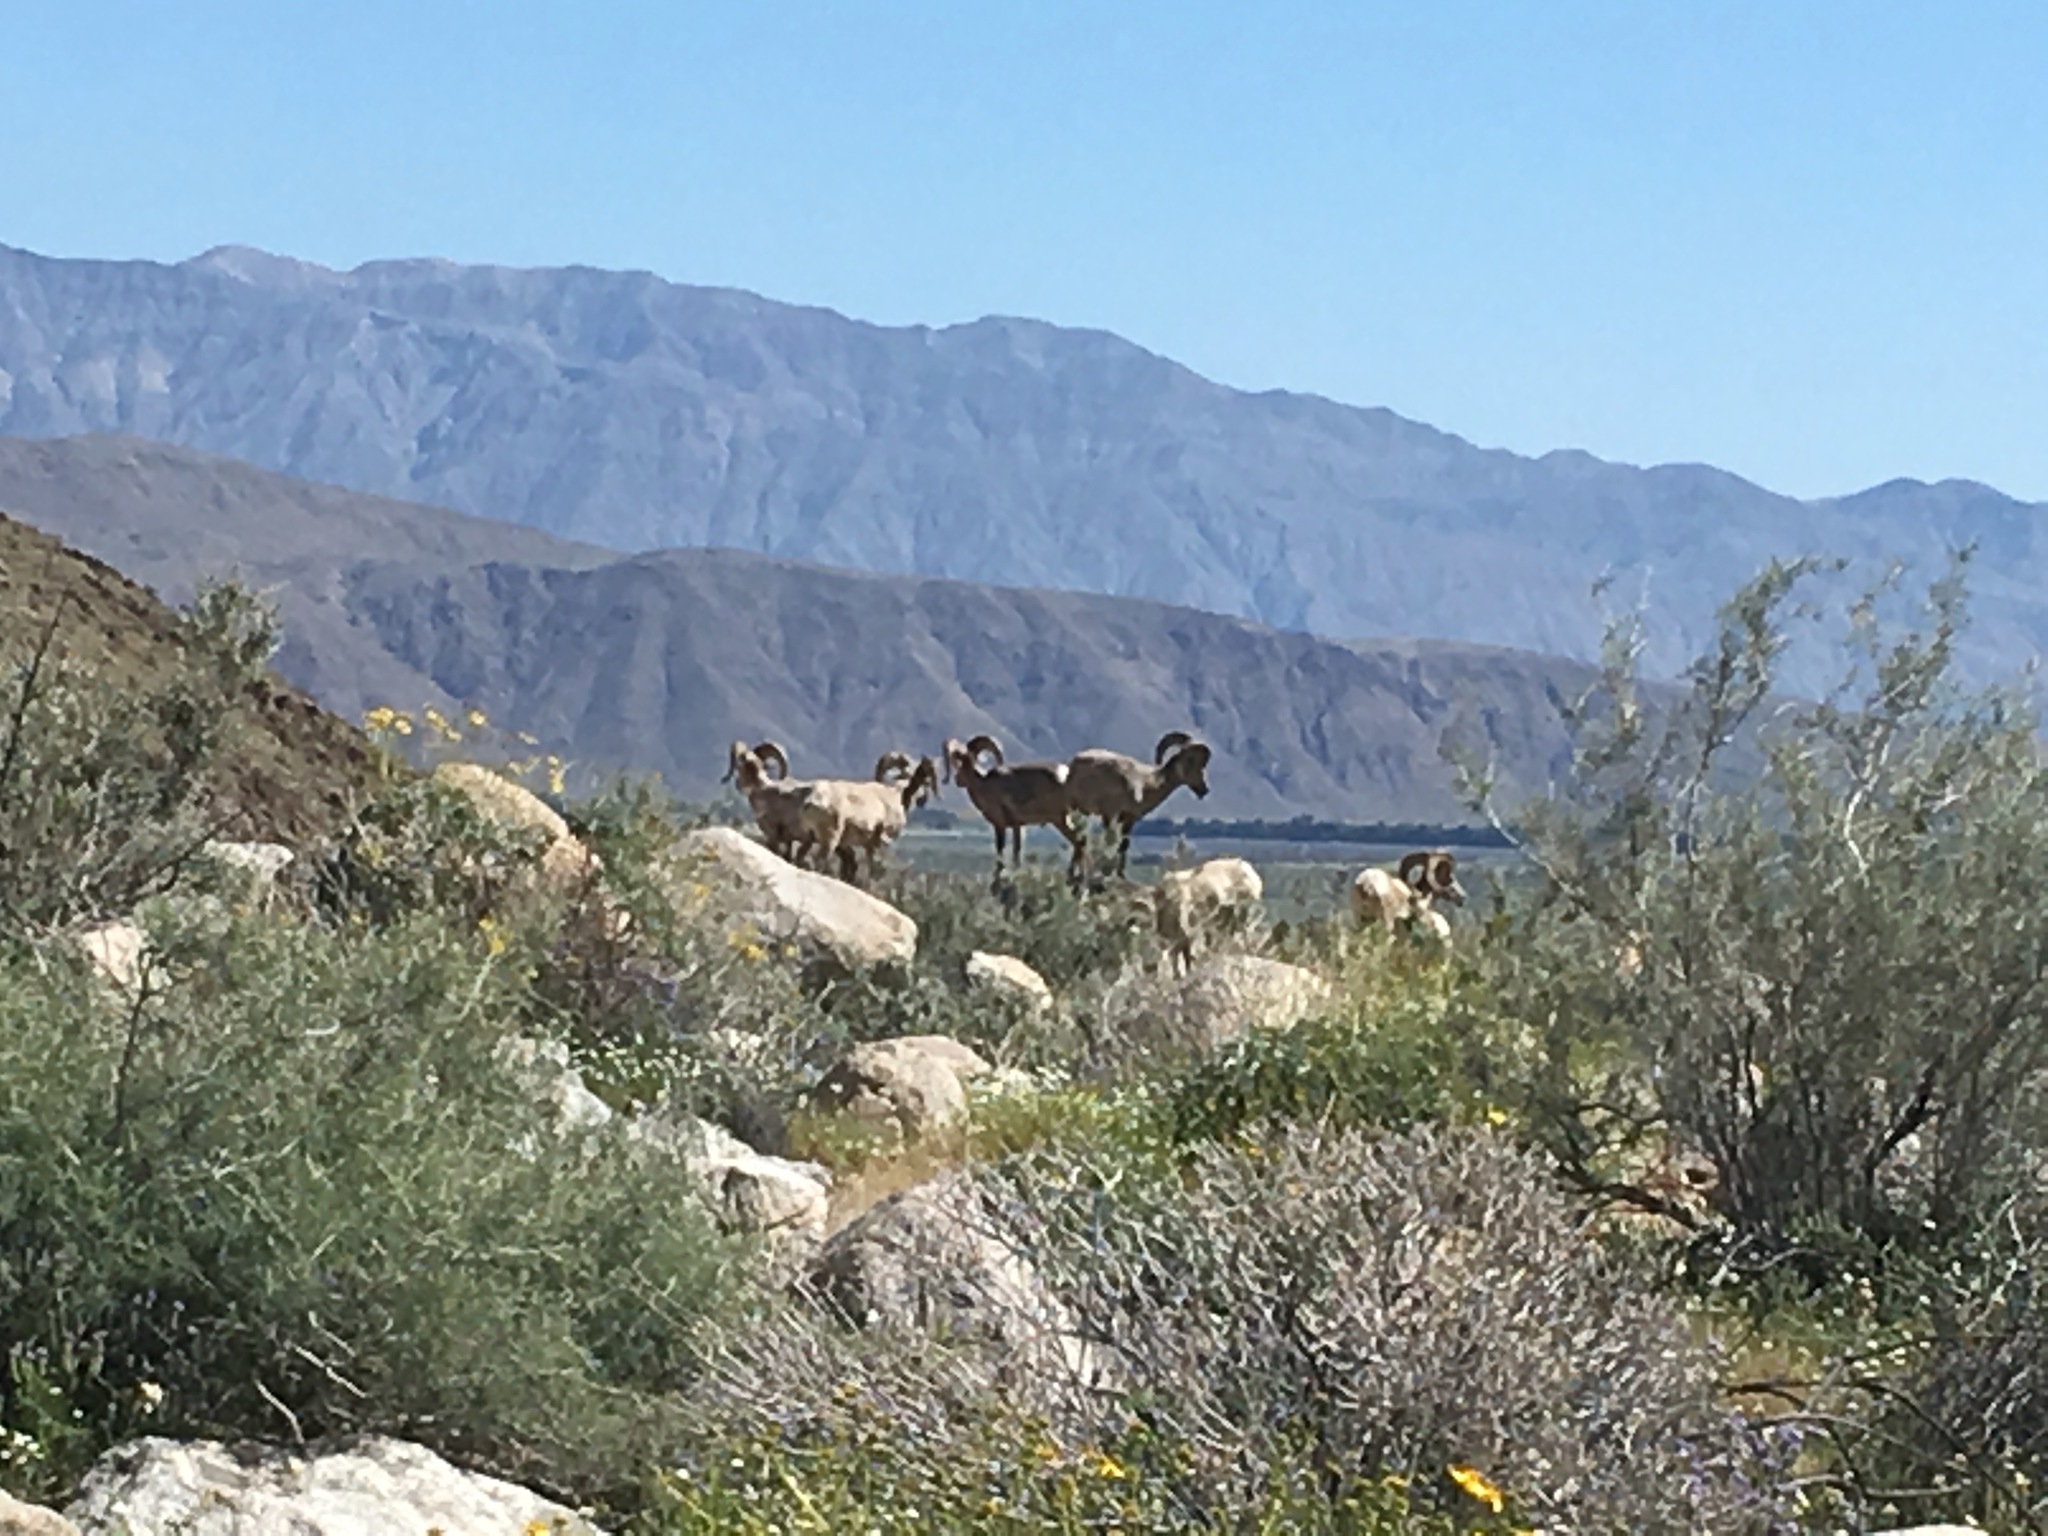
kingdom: Animalia
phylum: Chordata
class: Mammalia
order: Artiodactyla
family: Bovidae
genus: Ovis
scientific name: Ovis canadensis
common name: Bighorn sheep
